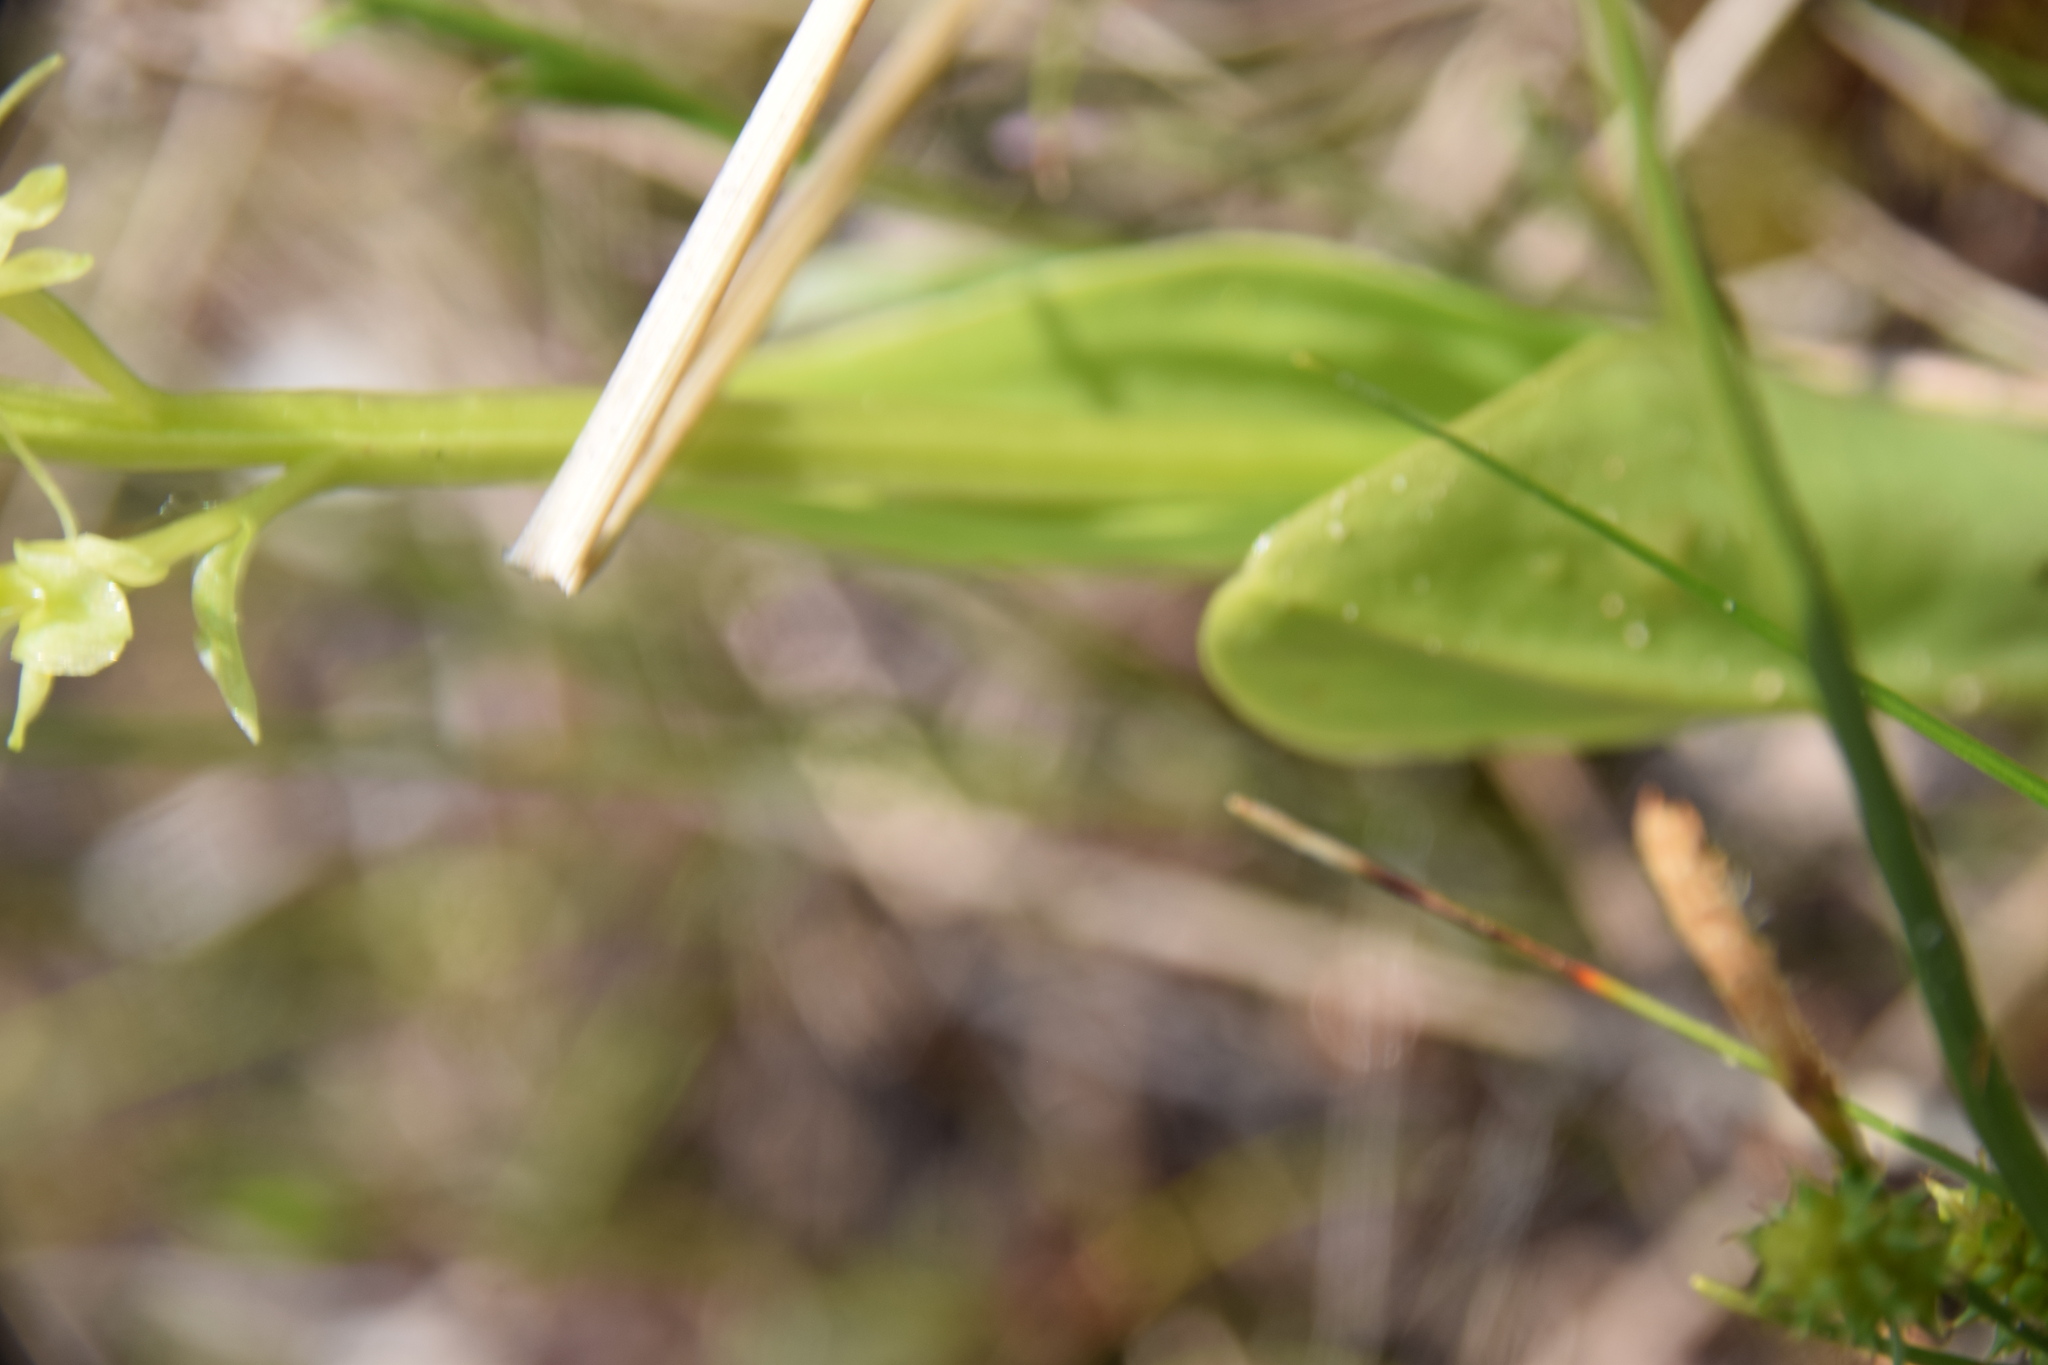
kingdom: Animalia
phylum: Arthropoda
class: Insecta
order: Coleoptera
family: Curculionidae
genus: Liparis
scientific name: Liparis loeselii
